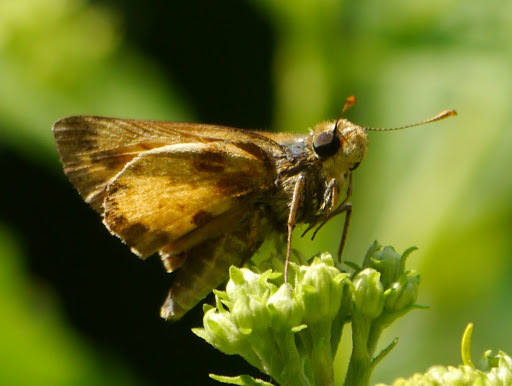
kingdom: Animalia
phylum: Arthropoda
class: Insecta
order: Lepidoptera
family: Hesperiidae
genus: Lon
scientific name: Lon zabulon
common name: Zabulon skipper
